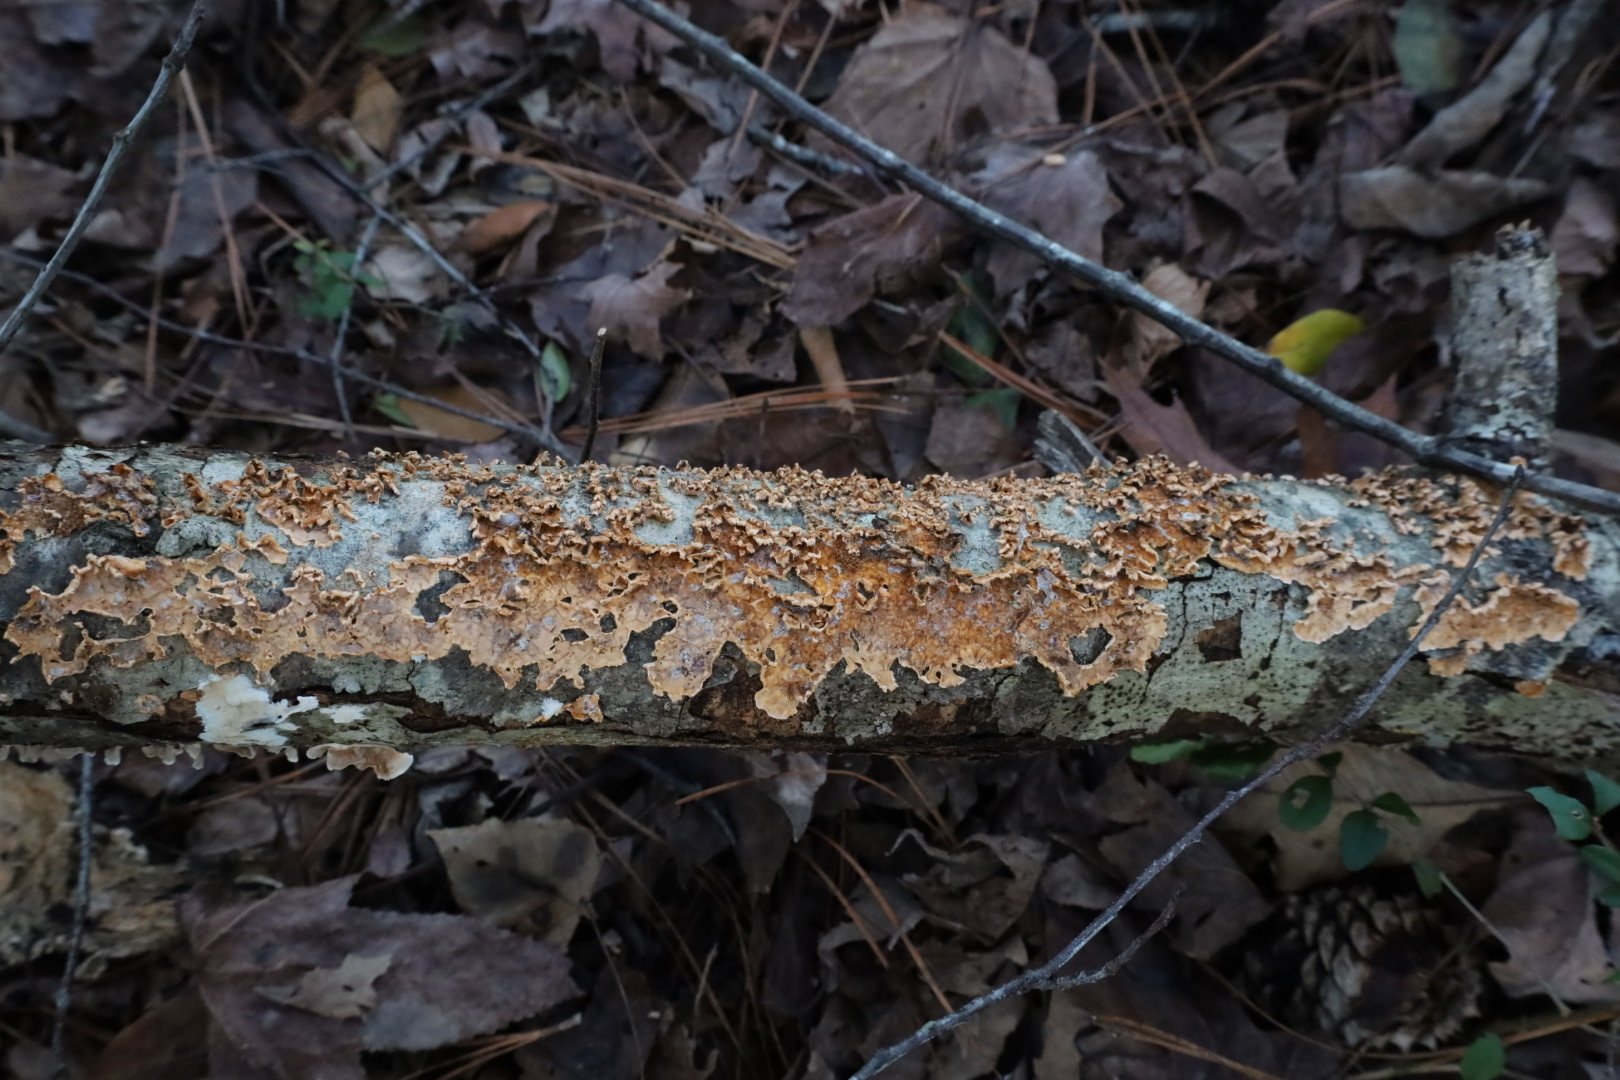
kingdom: Fungi
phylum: Basidiomycota
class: Agaricomycetes
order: Russulales
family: Stereaceae
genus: Stereum
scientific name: Stereum complicatum
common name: Crowded parchment
